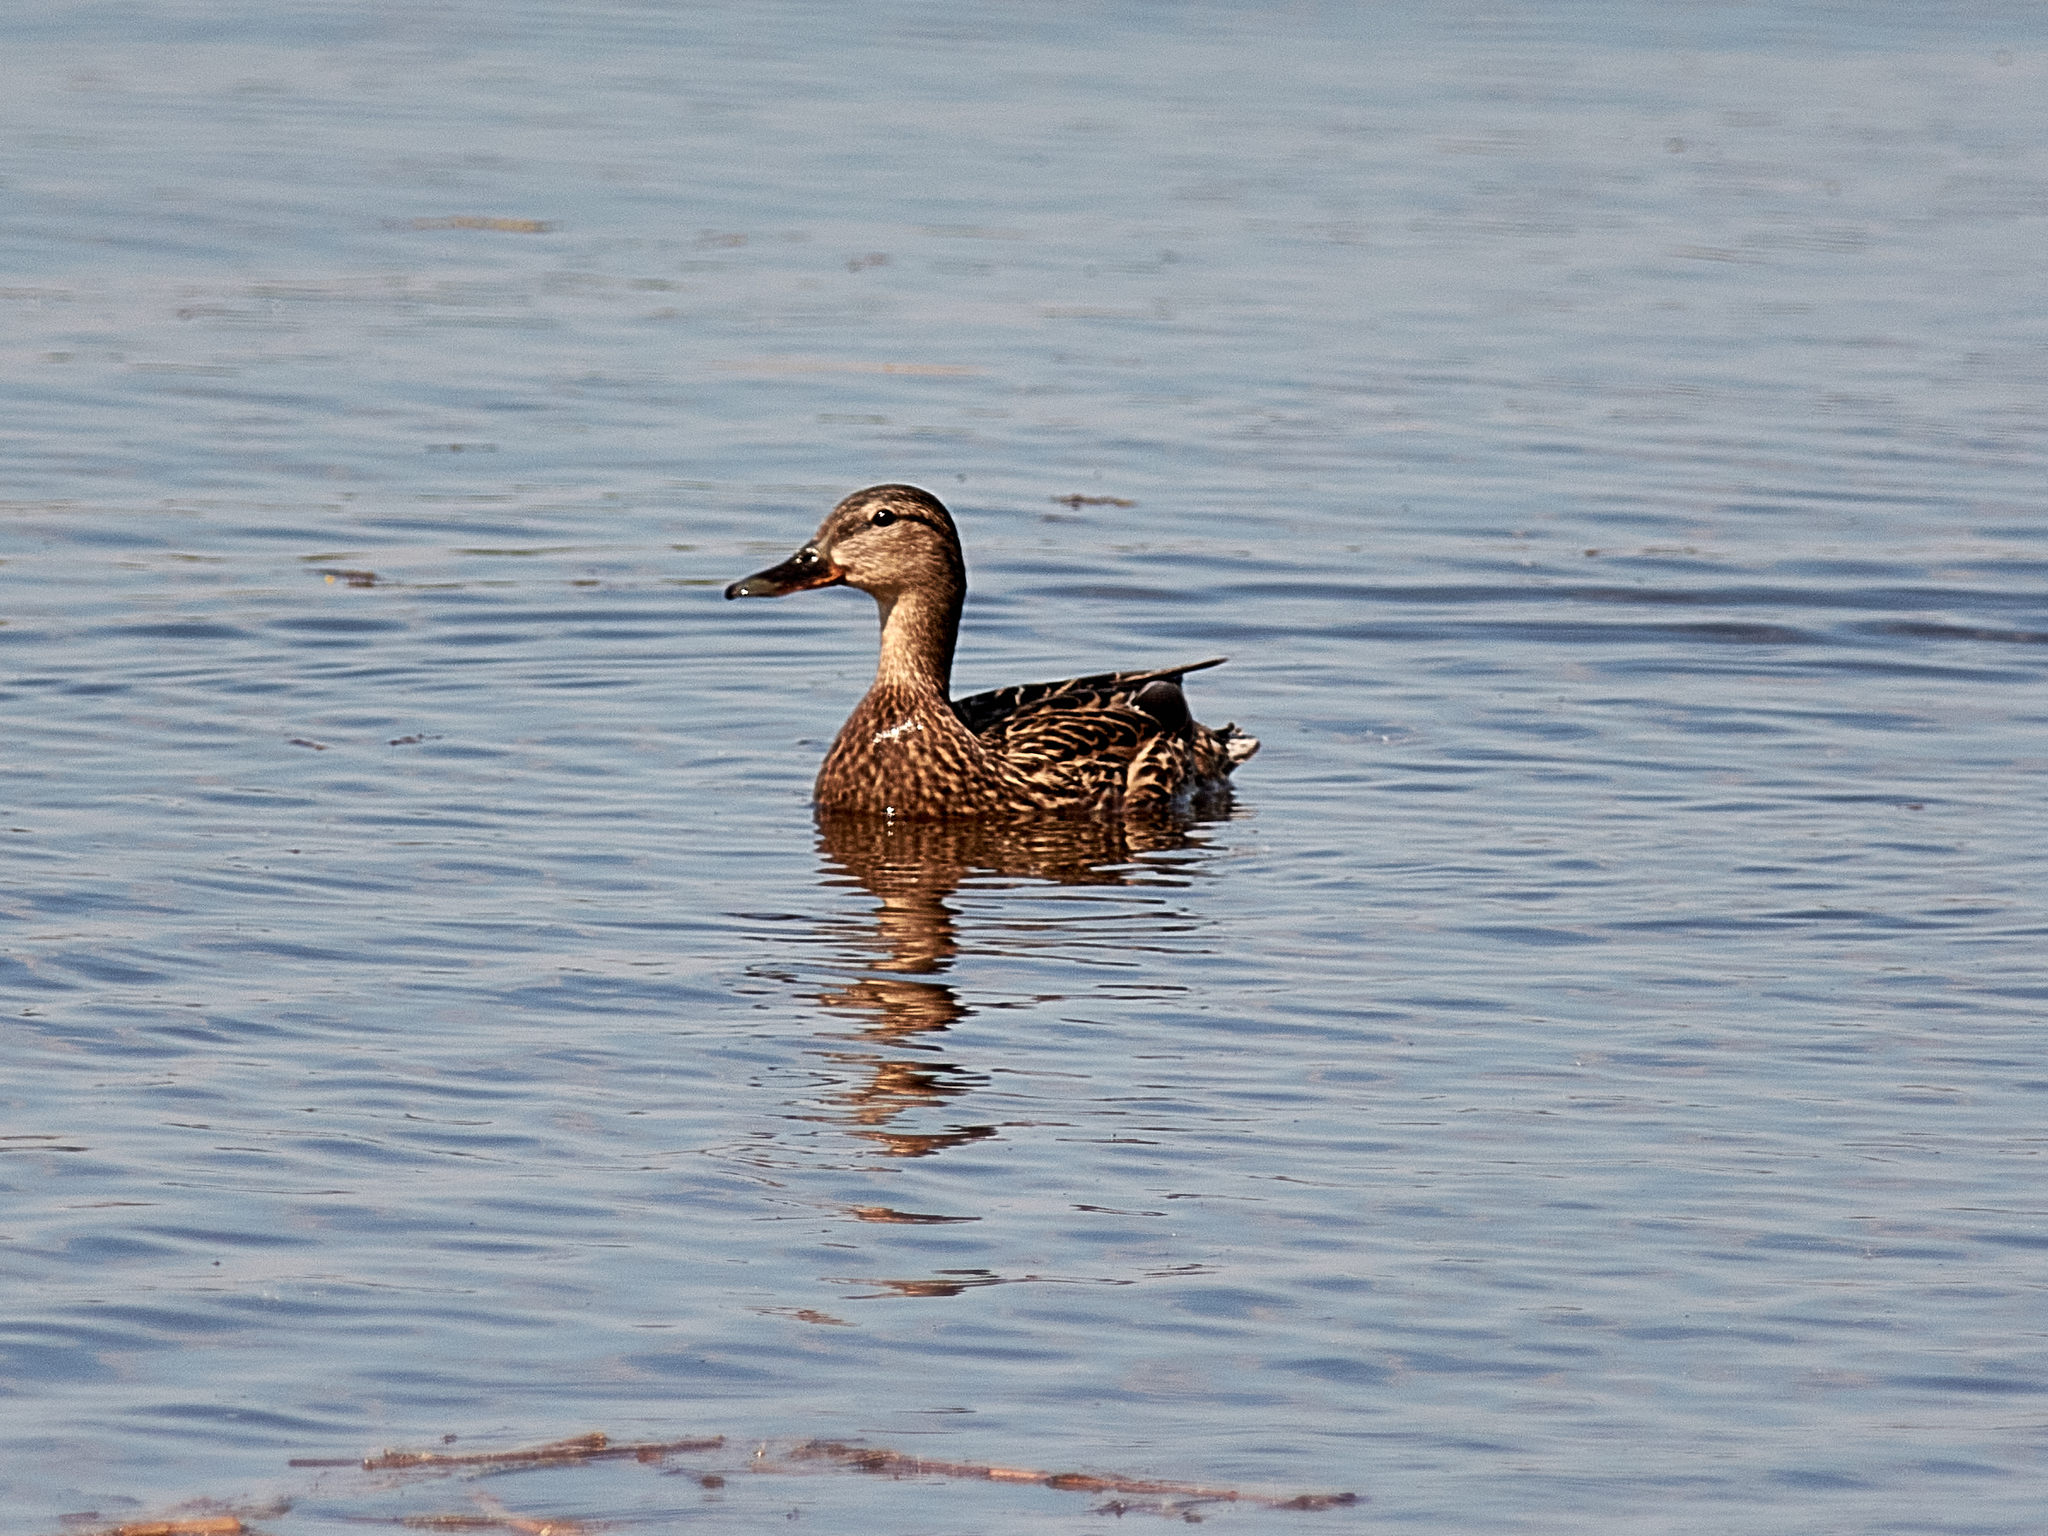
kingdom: Animalia
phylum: Chordata
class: Aves
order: Anseriformes
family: Anatidae
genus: Anas
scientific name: Anas platyrhynchos
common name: Mallard
